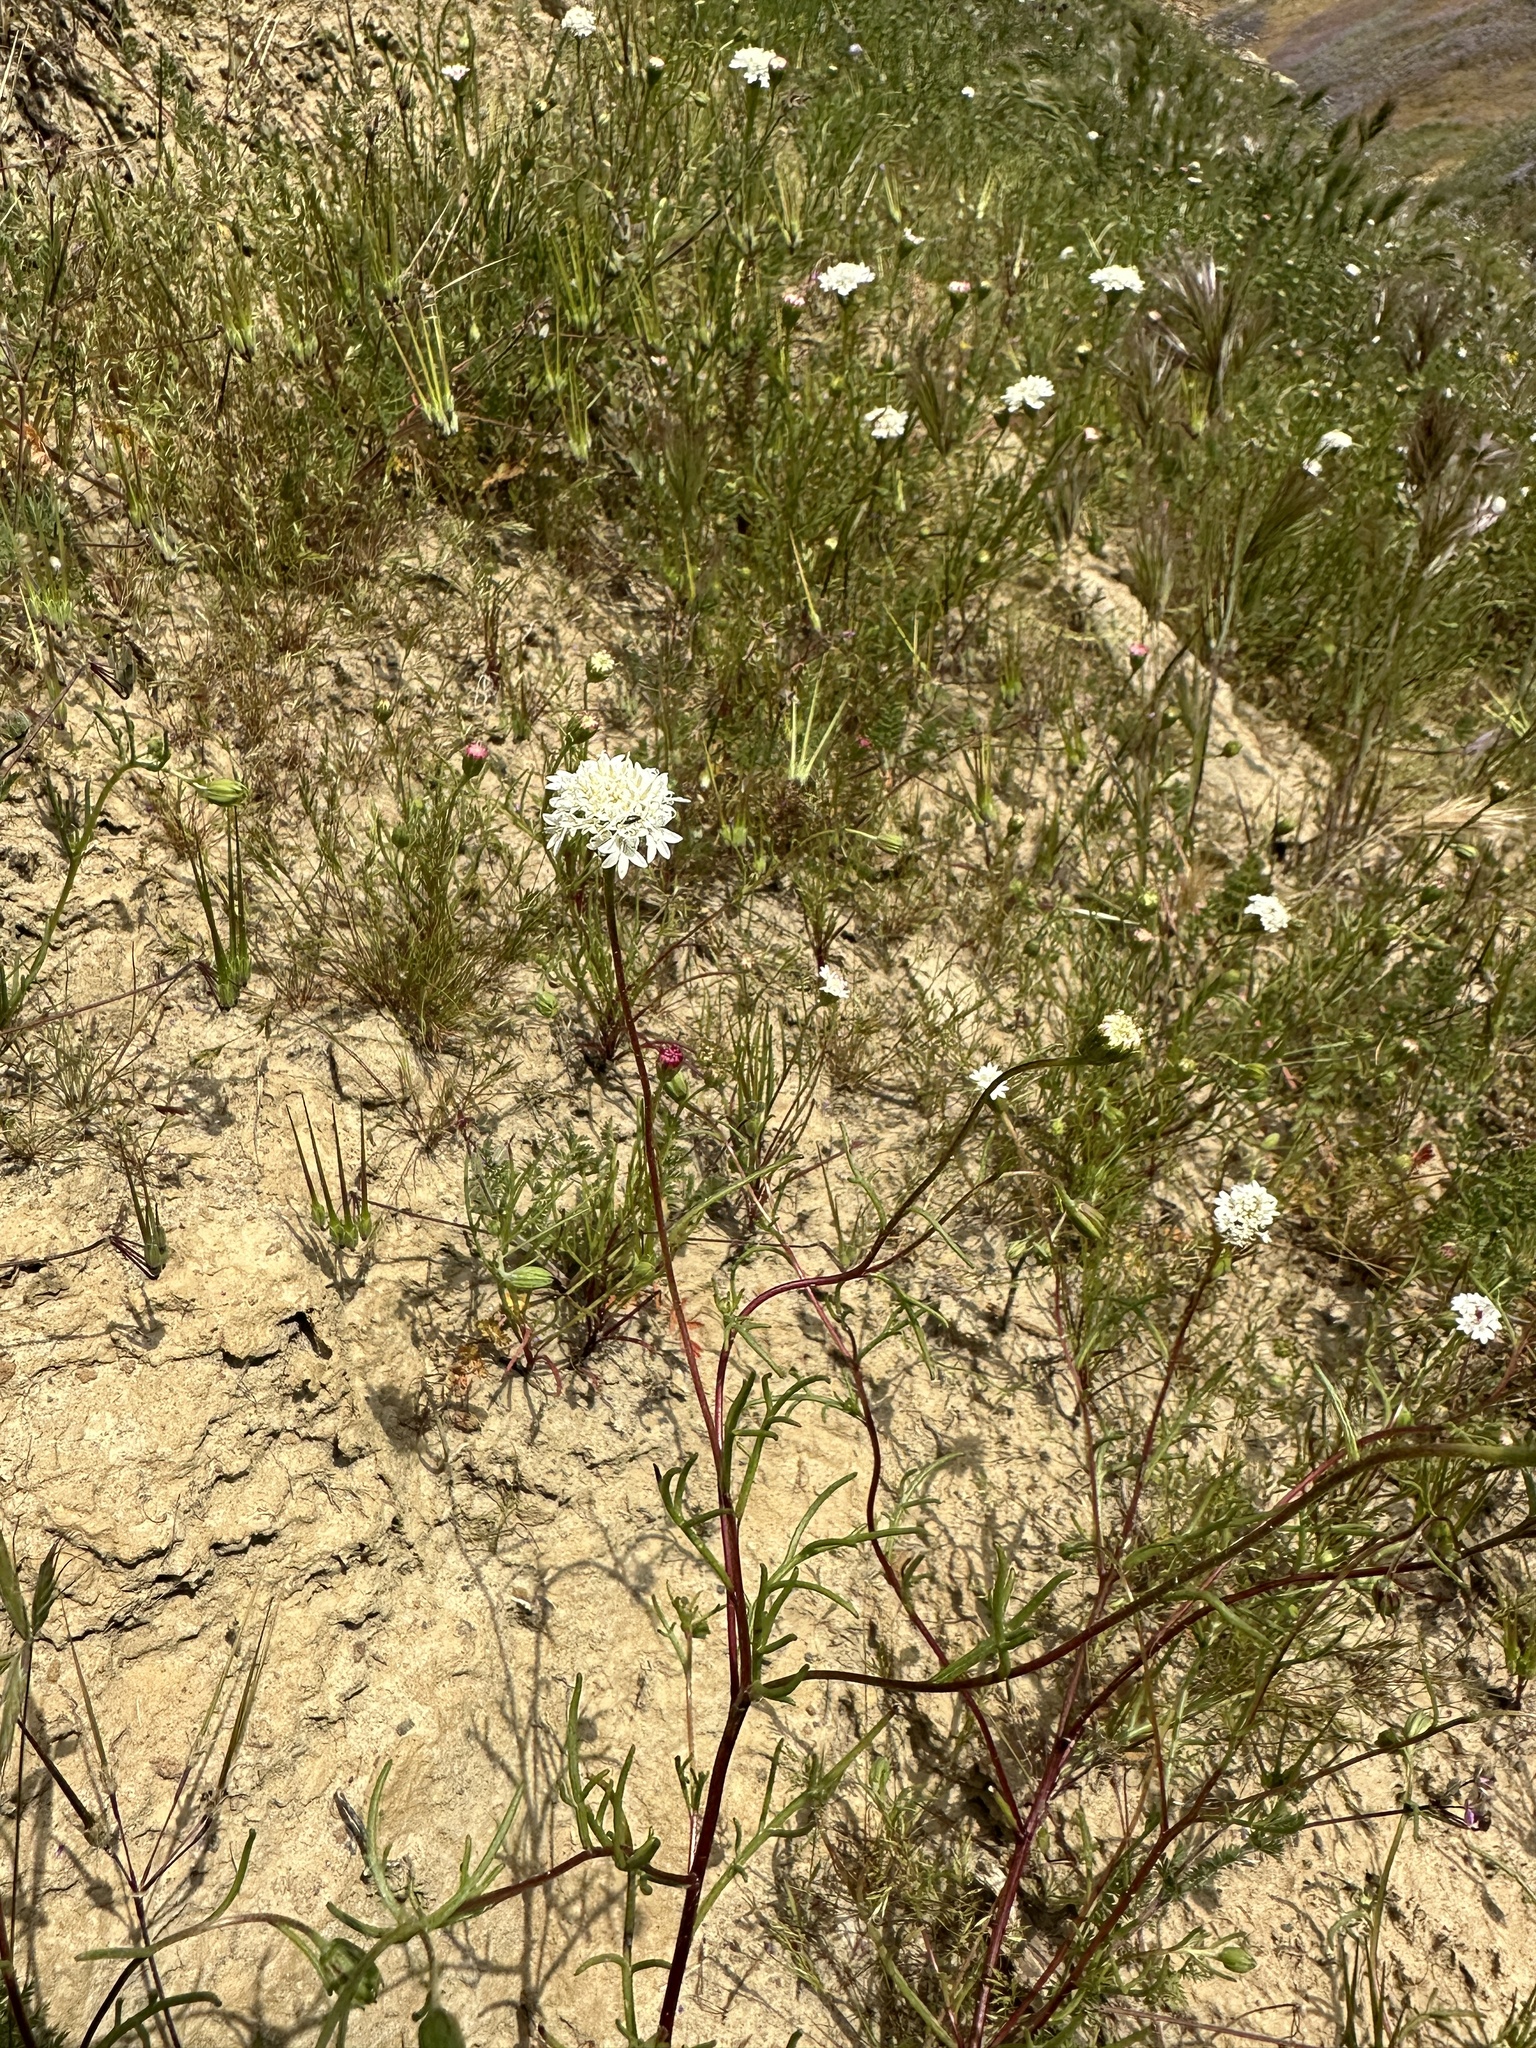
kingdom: Plantae
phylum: Tracheophyta
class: Magnoliopsida
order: Asterales
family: Asteraceae
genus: Chaenactis
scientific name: Chaenactis fremontii
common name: Fremont pincushion
